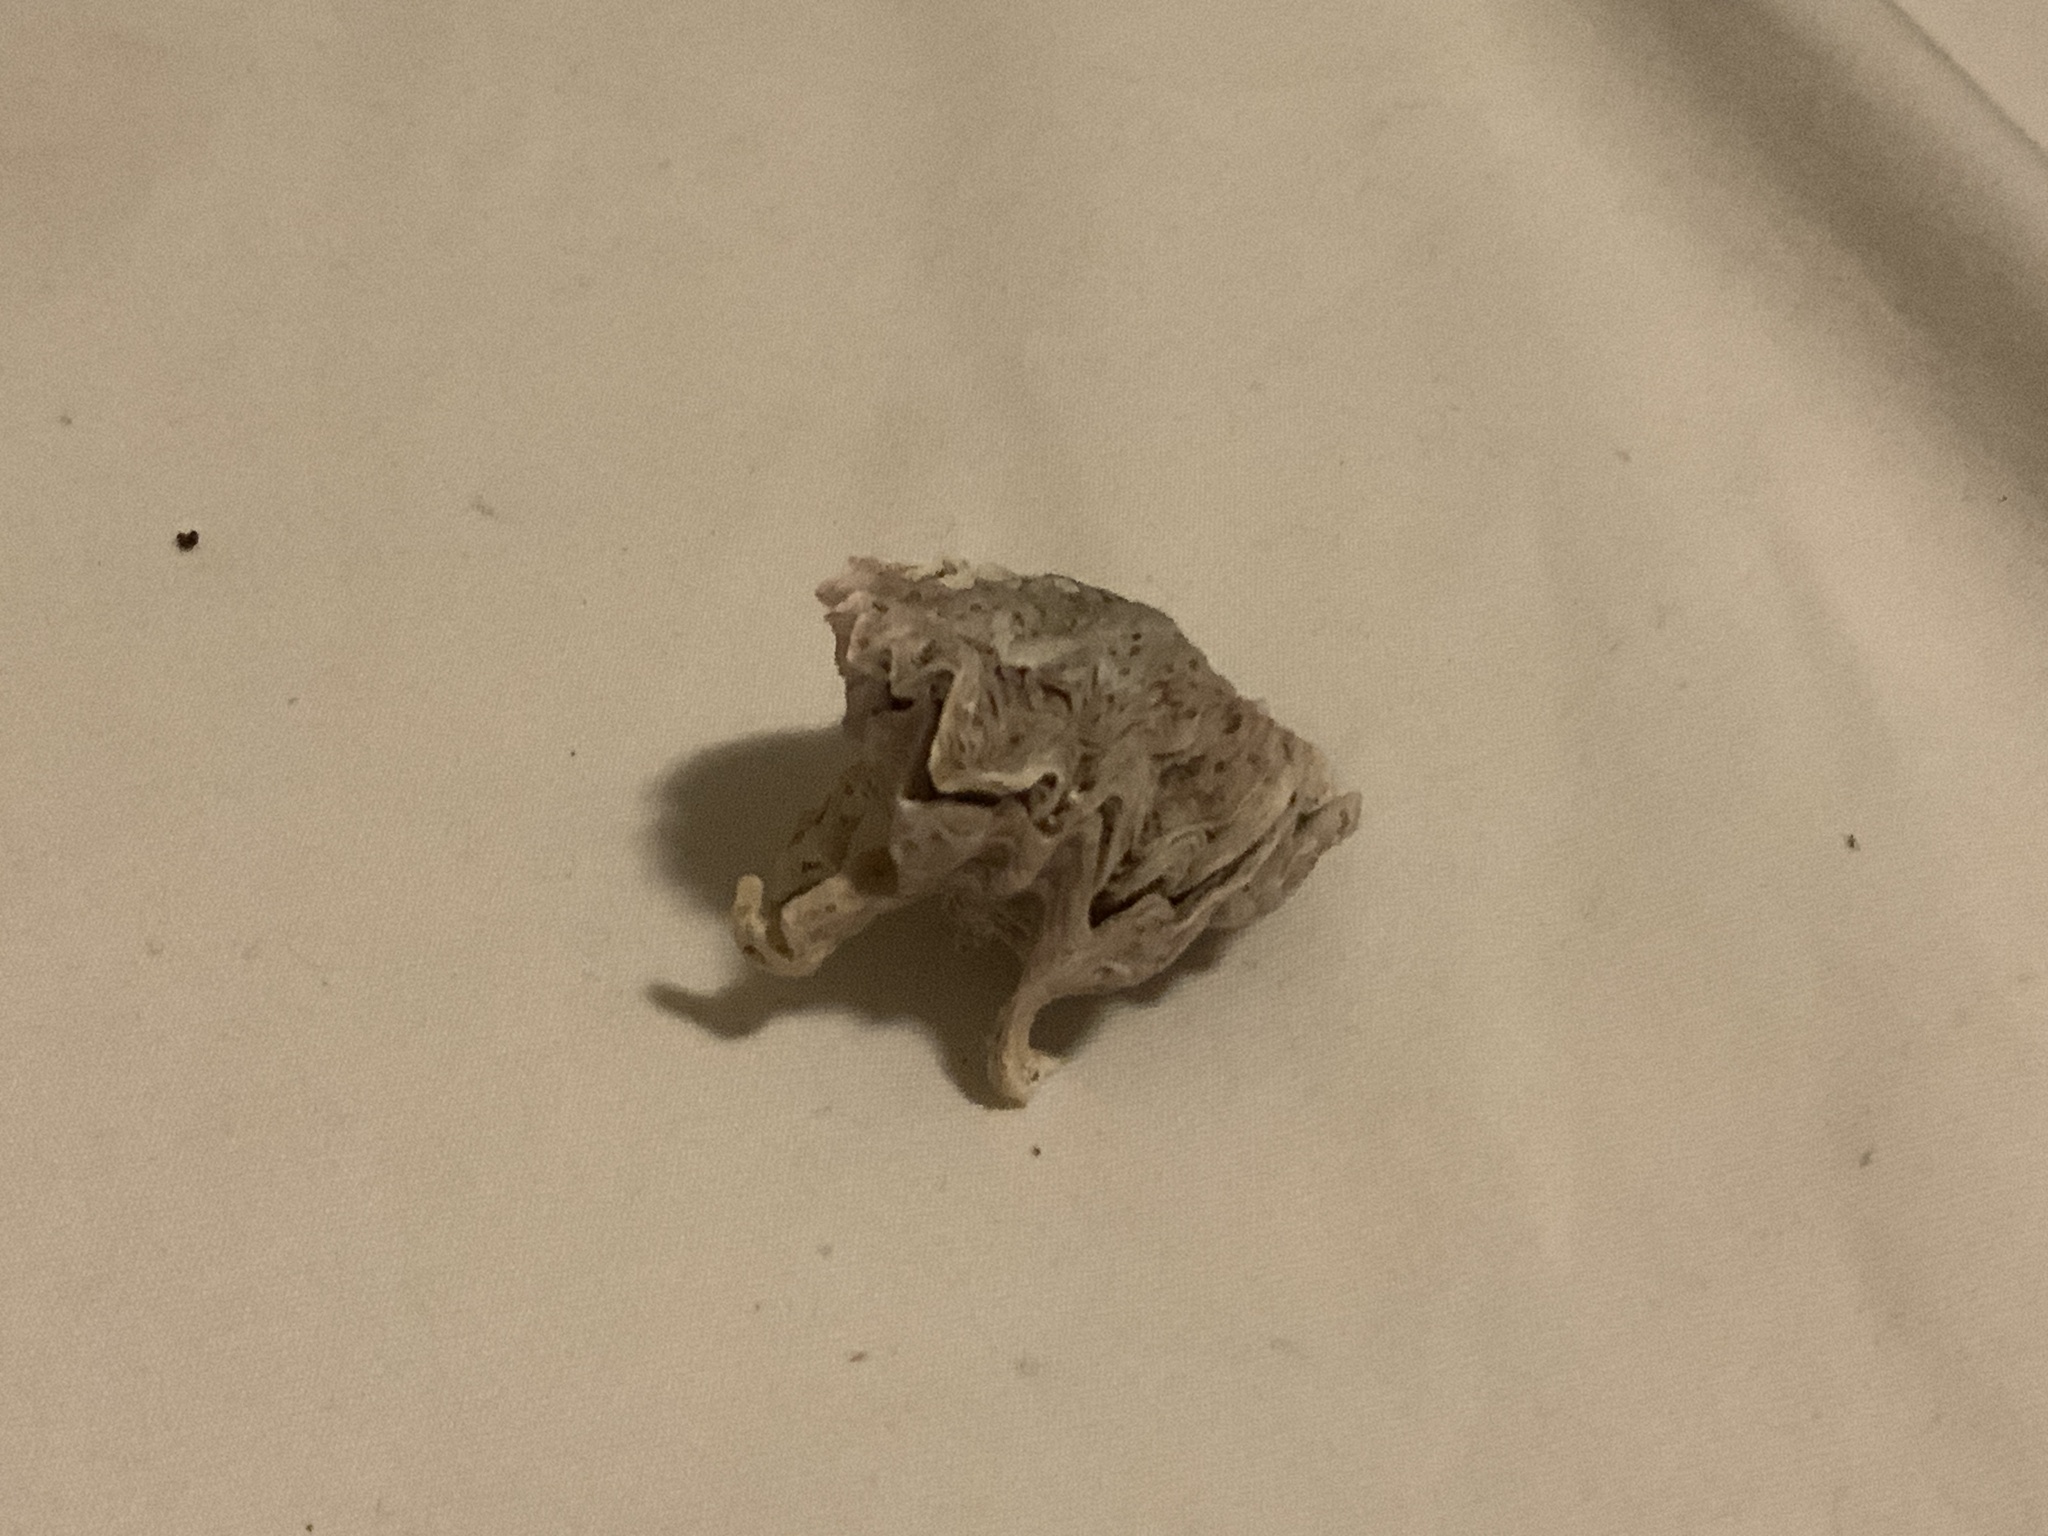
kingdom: Animalia
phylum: Mollusca
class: Bivalvia
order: Ostreida
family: Ostreidae
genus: Dendostrea
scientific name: Dendostrea frons
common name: Frond oyster
